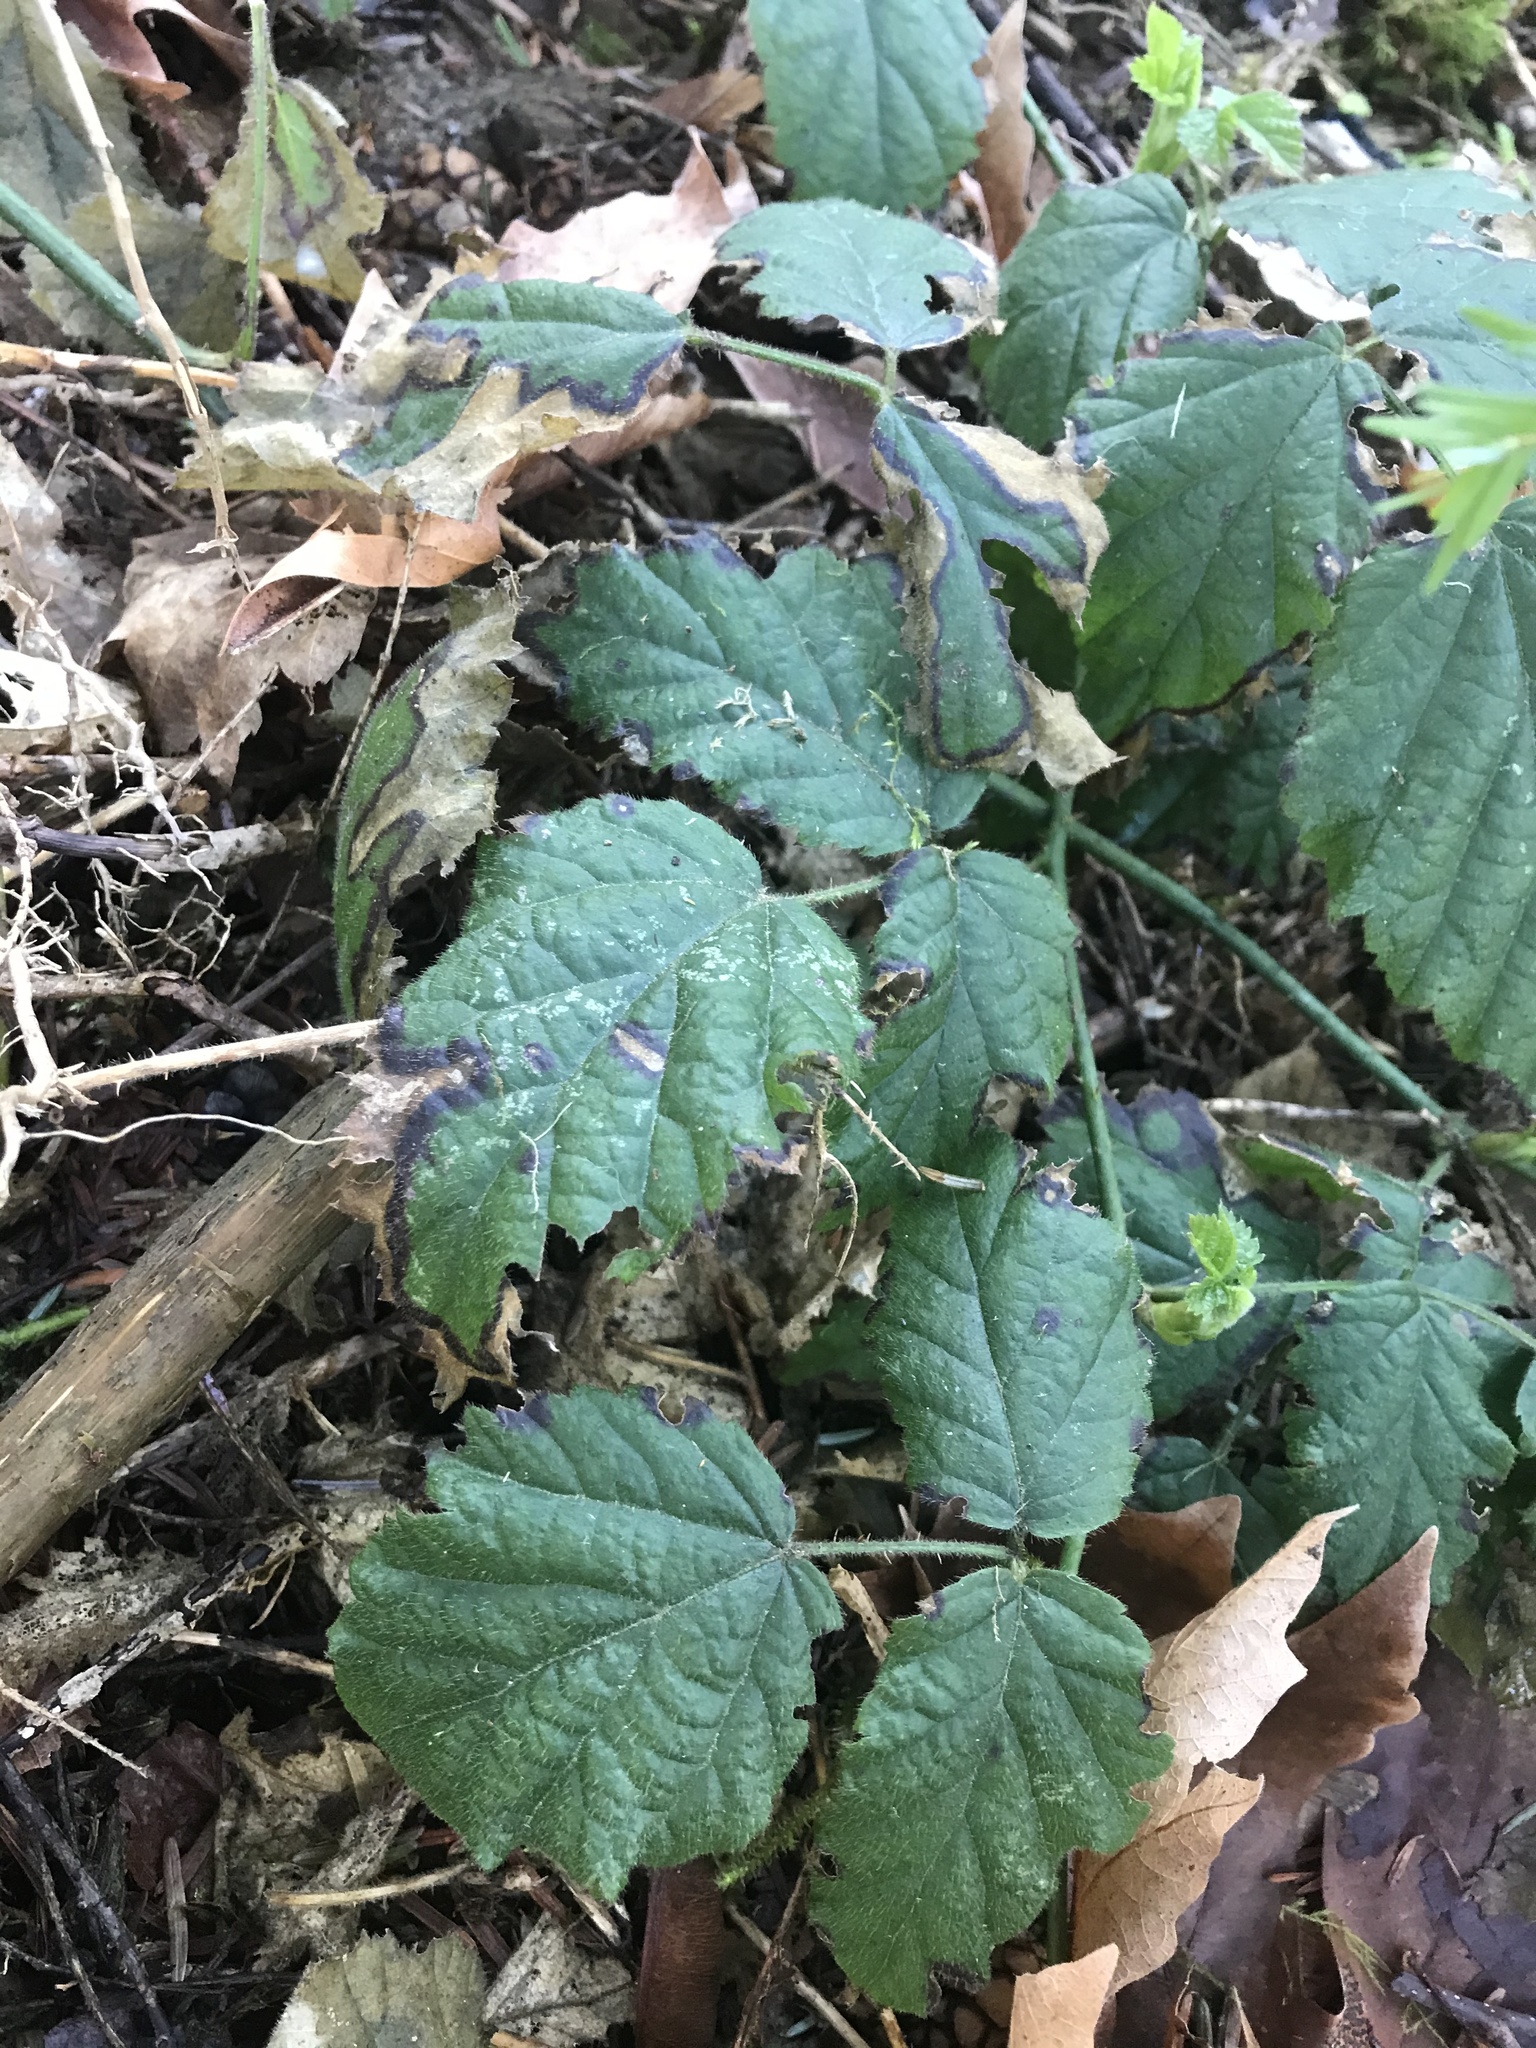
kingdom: Plantae
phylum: Tracheophyta
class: Magnoliopsida
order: Rosales
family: Rosaceae
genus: Rubus
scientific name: Rubus ursinus
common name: Pacific blackberry
